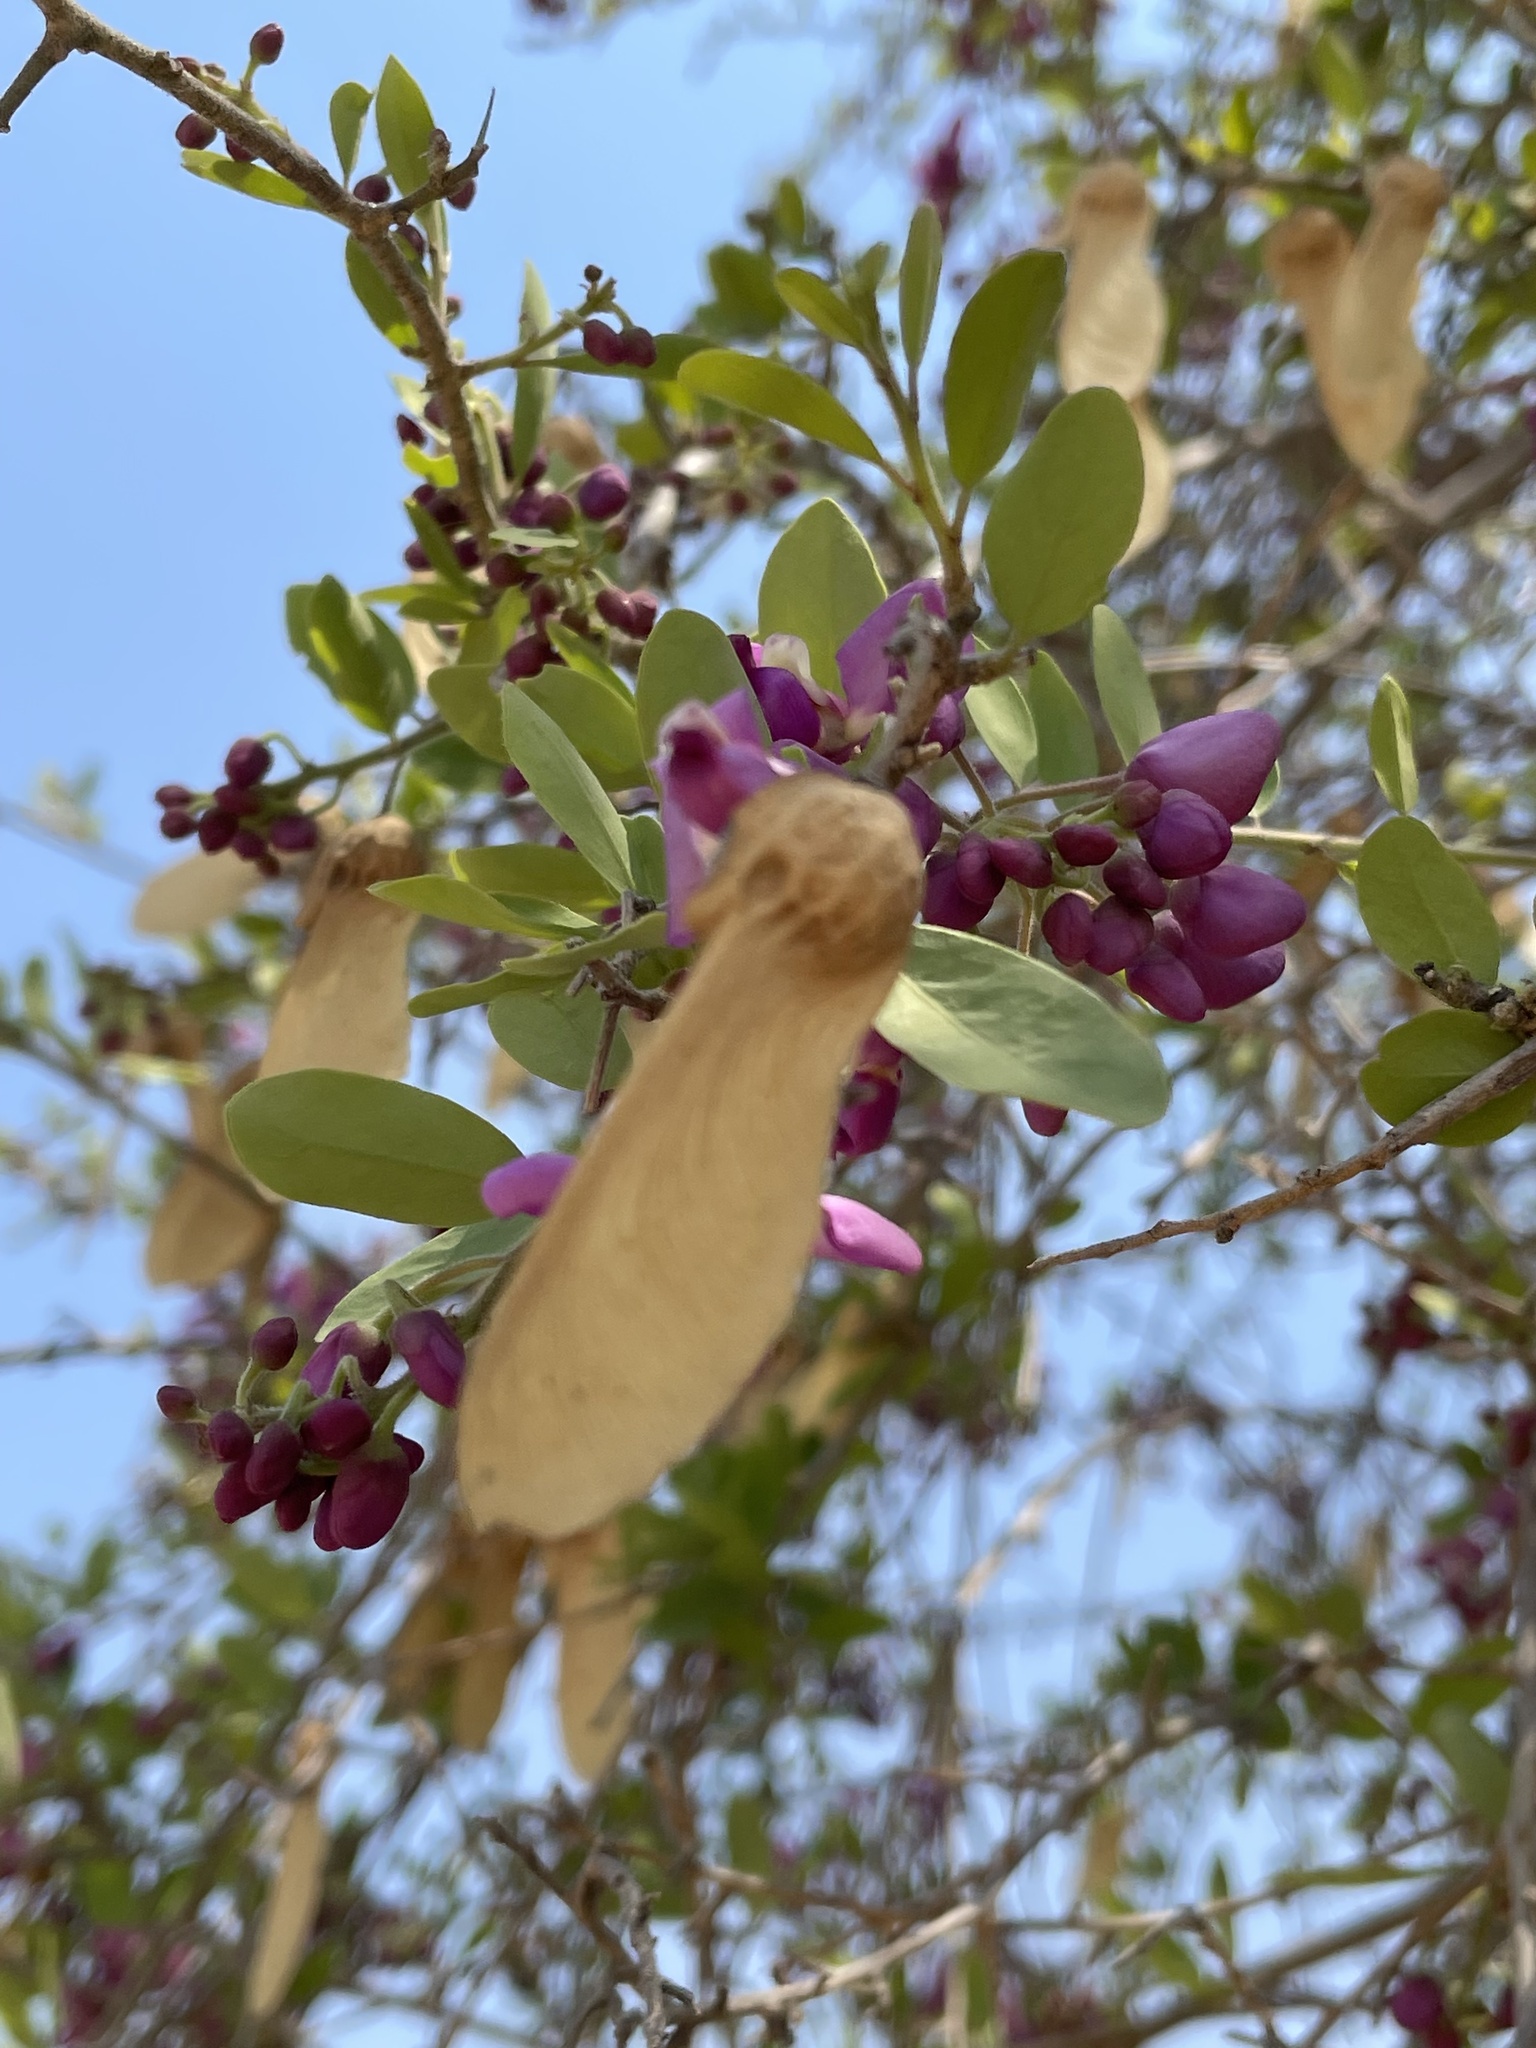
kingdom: Plantae
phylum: Tracheophyta
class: Magnoliopsida
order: Fabales
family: Polygalaceae
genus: Securidaca
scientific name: Securidaca longepedunculata
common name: Violet tree
